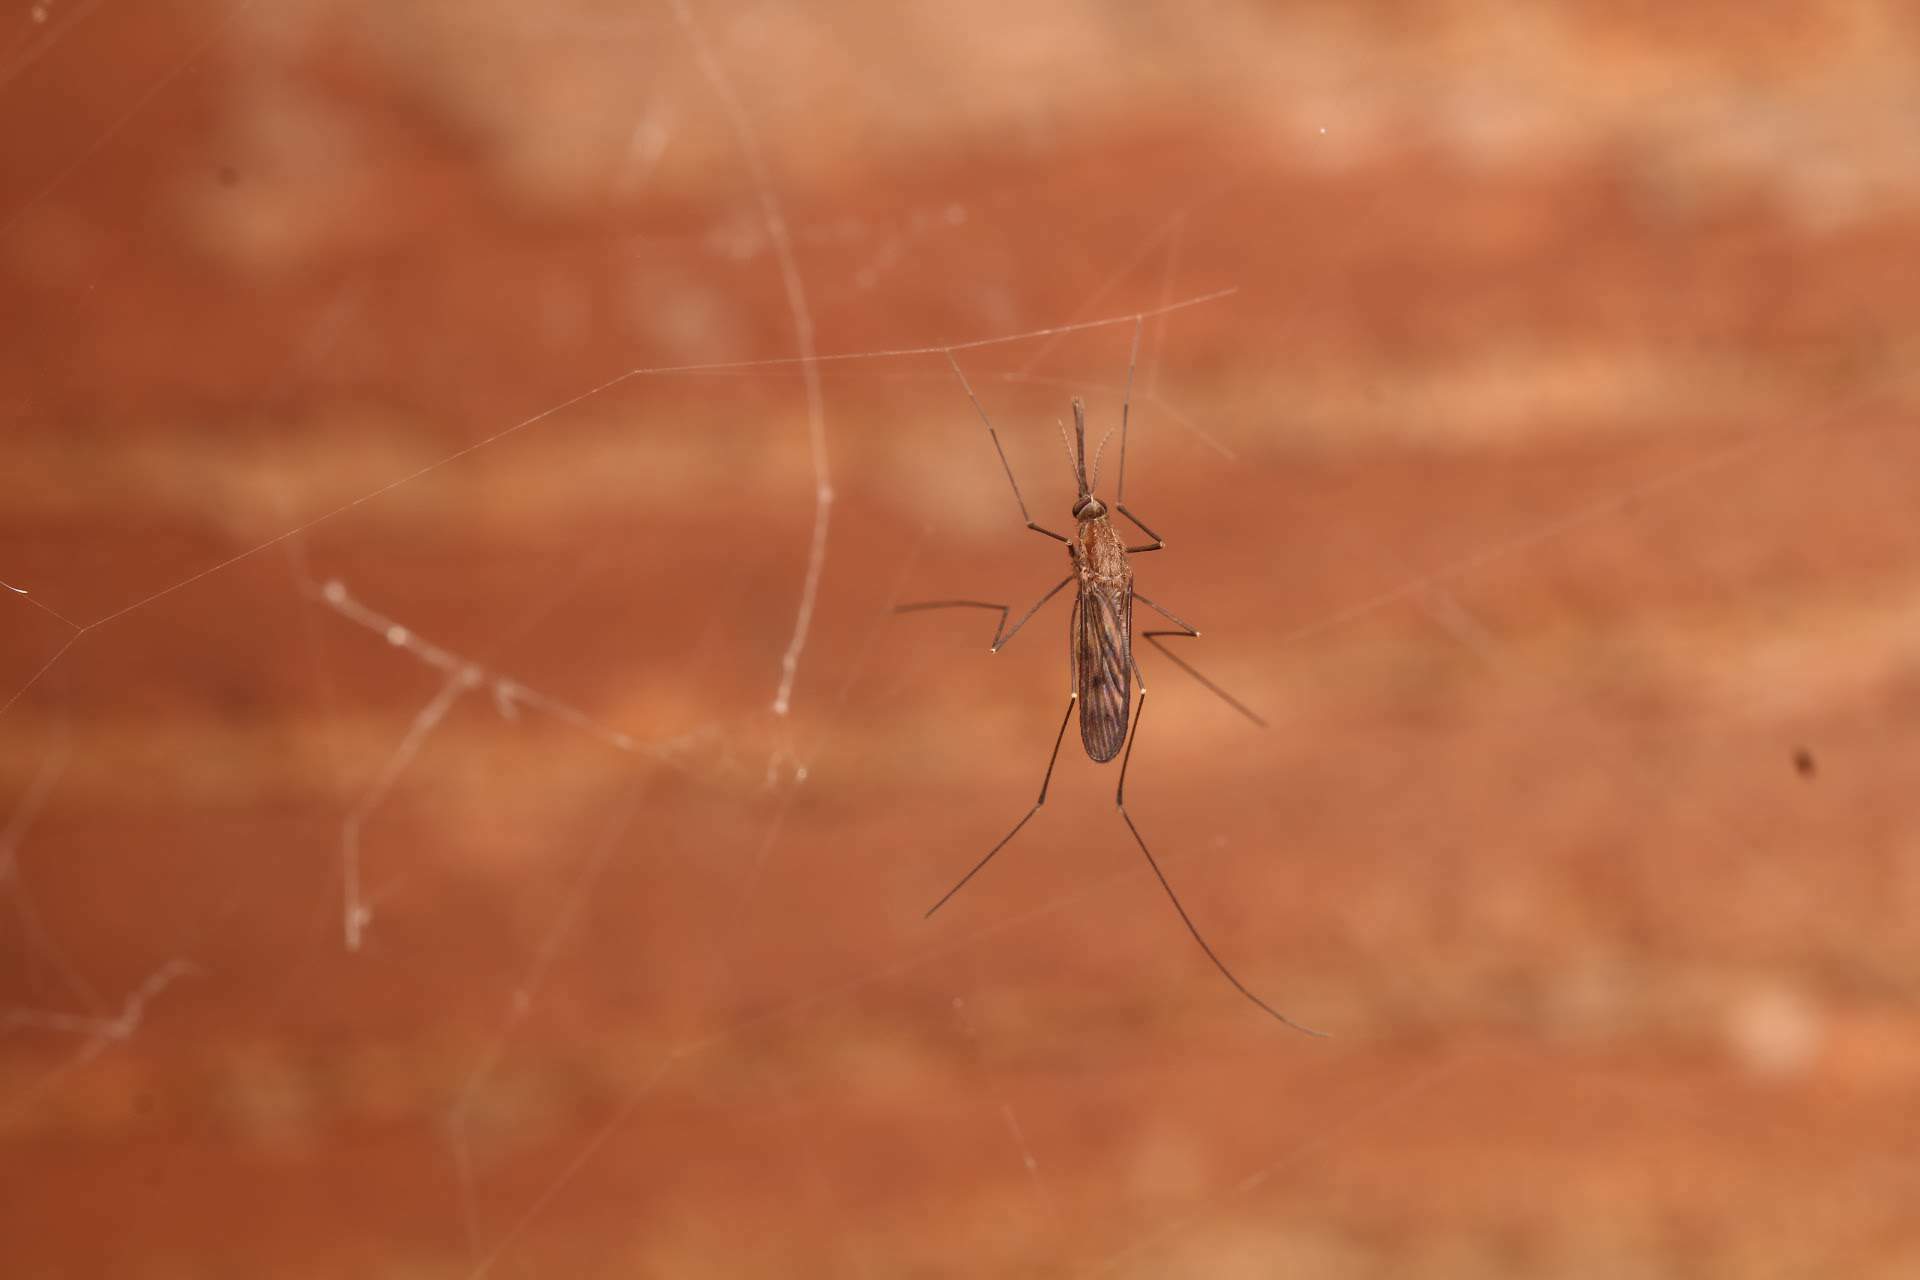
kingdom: Animalia
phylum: Arthropoda
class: Insecta
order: Diptera
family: Culicidae
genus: Anopheles
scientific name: Anopheles
